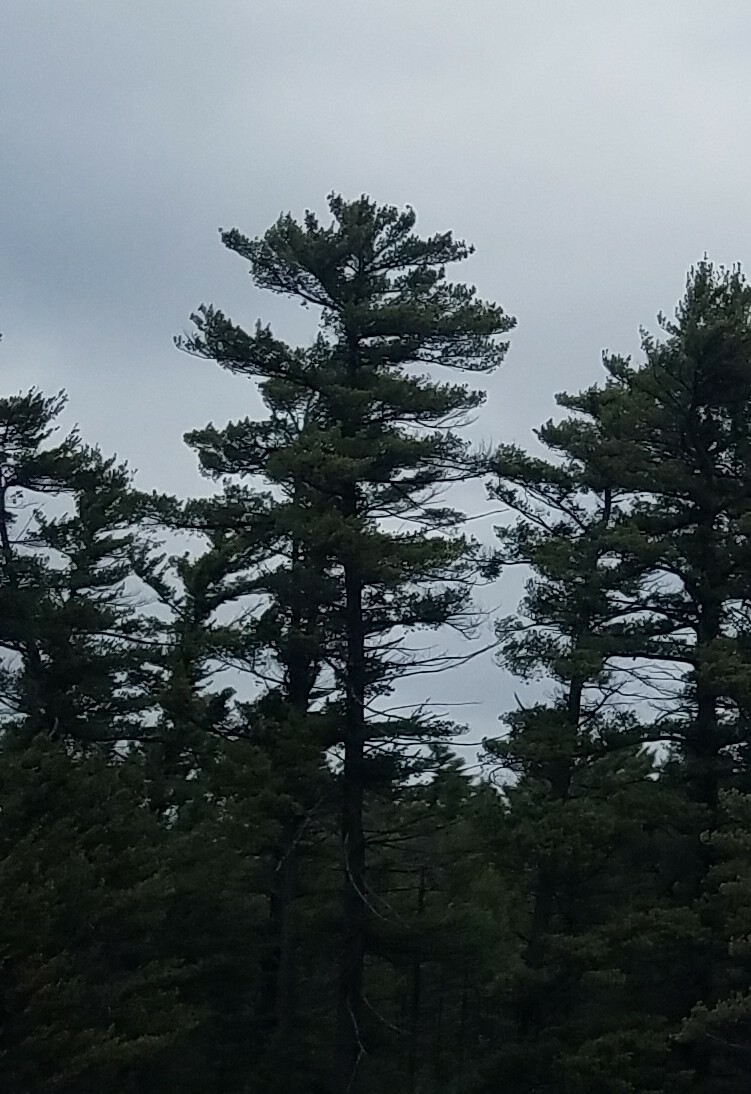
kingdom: Plantae
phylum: Tracheophyta
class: Pinopsida
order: Pinales
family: Pinaceae
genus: Pinus
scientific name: Pinus strobus
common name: Weymouth pine
